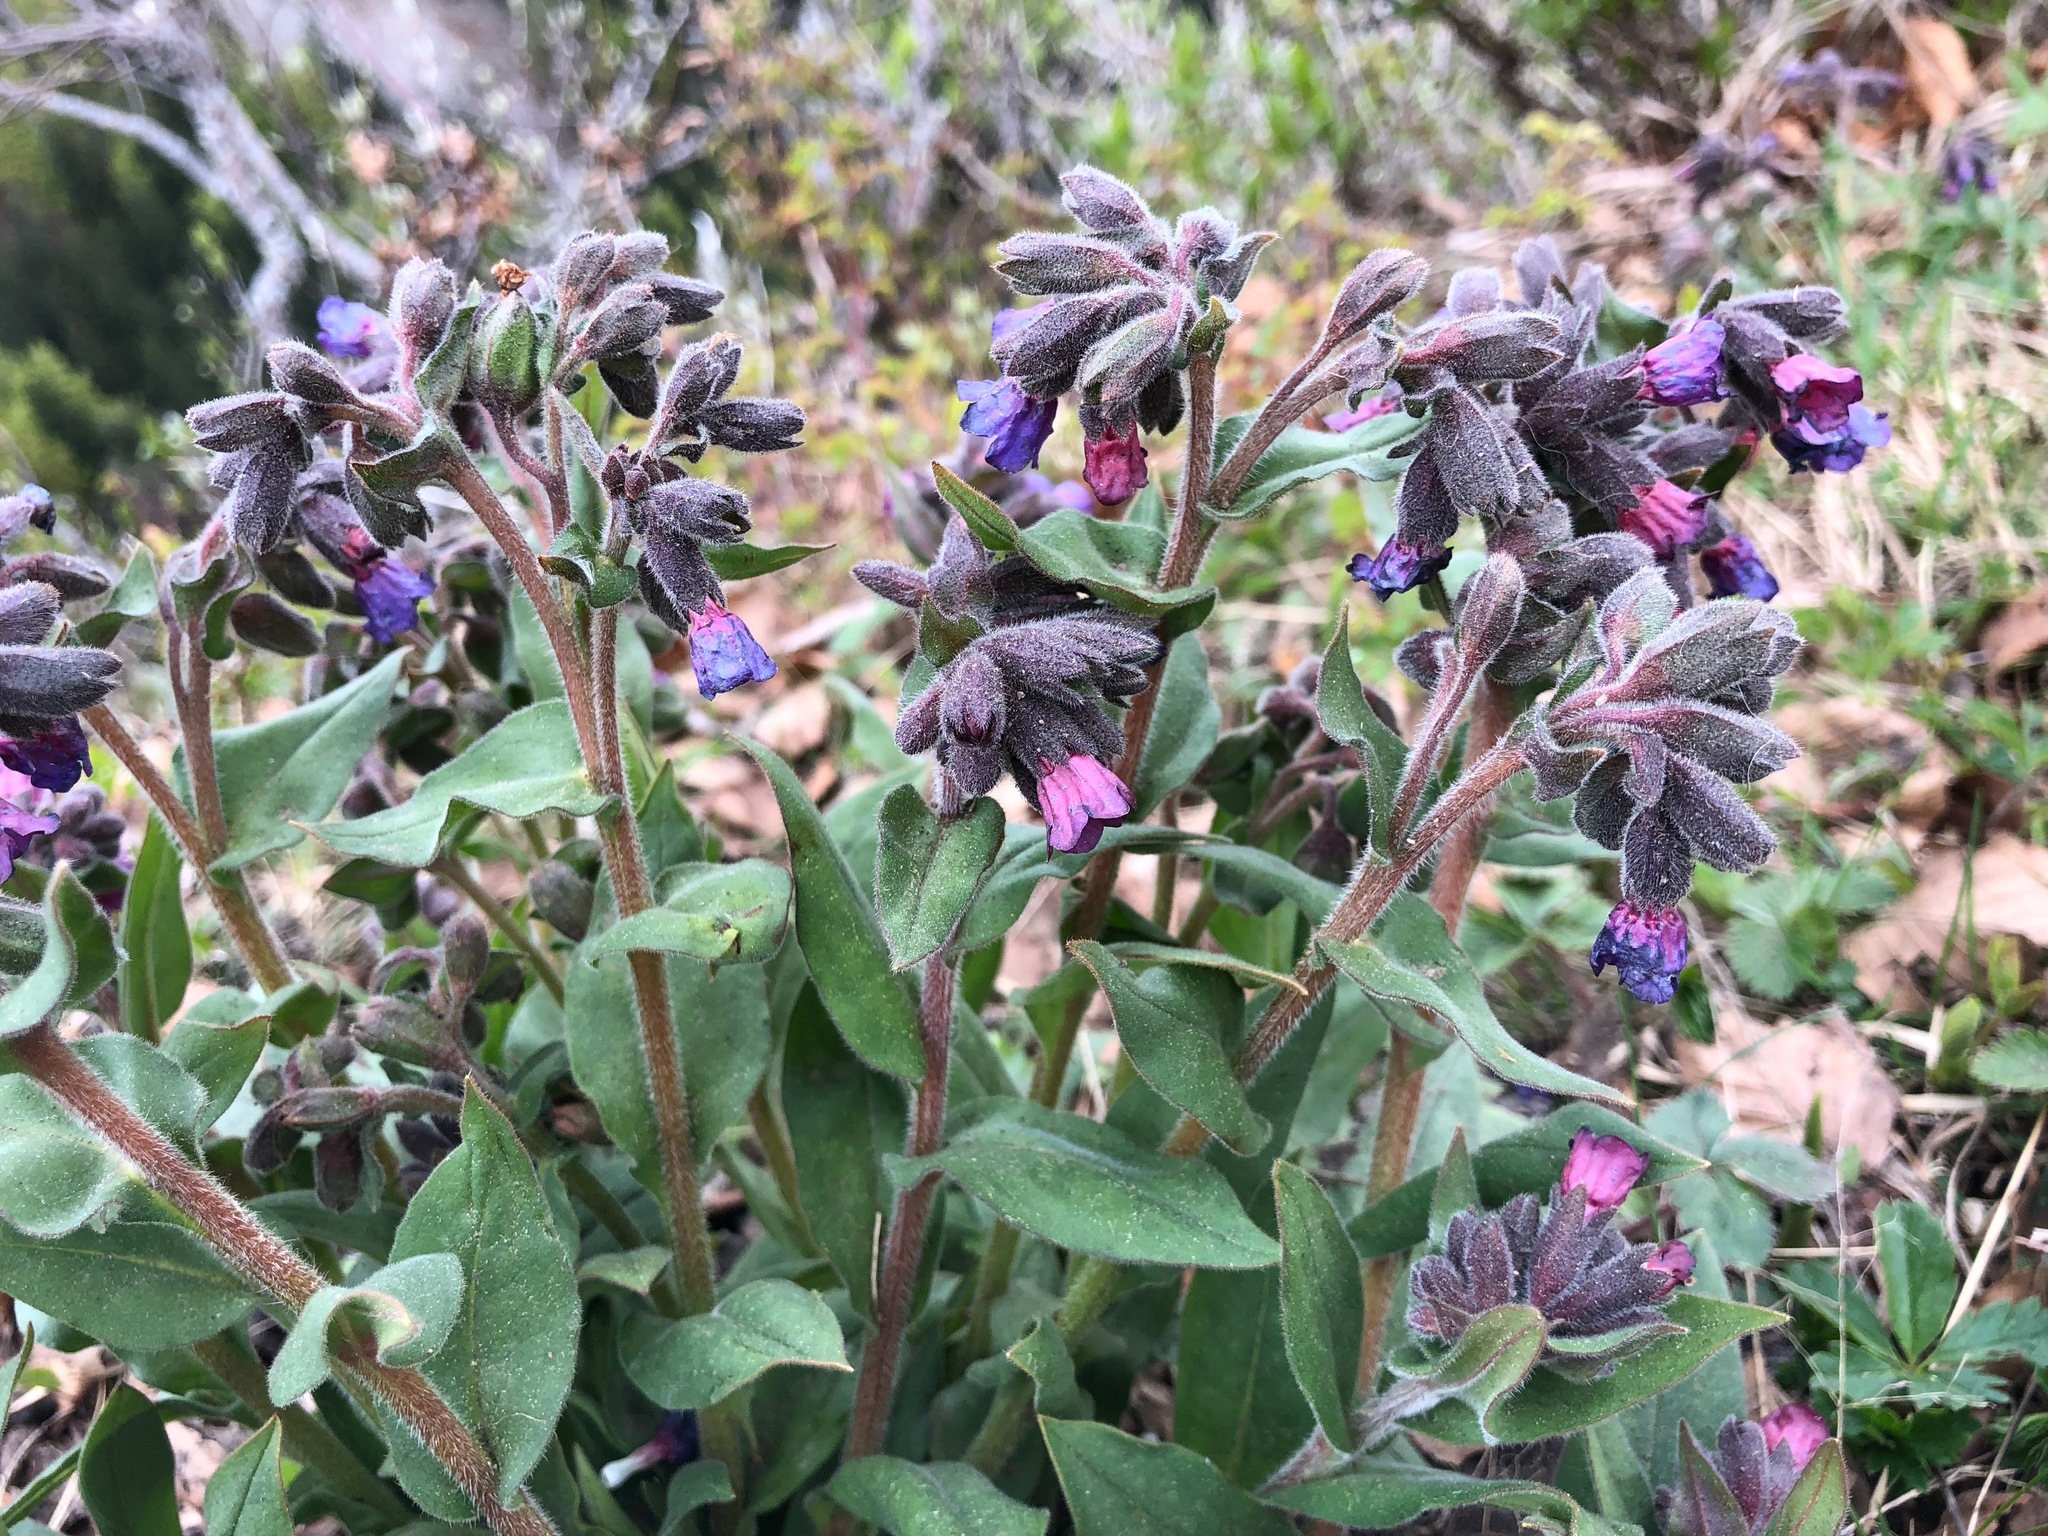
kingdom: Plantae
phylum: Tracheophyta
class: Magnoliopsida
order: Boraginales
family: Boraginaceae
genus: Pulmonaria
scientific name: Pulmonaria montana
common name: Mountain lungwort
